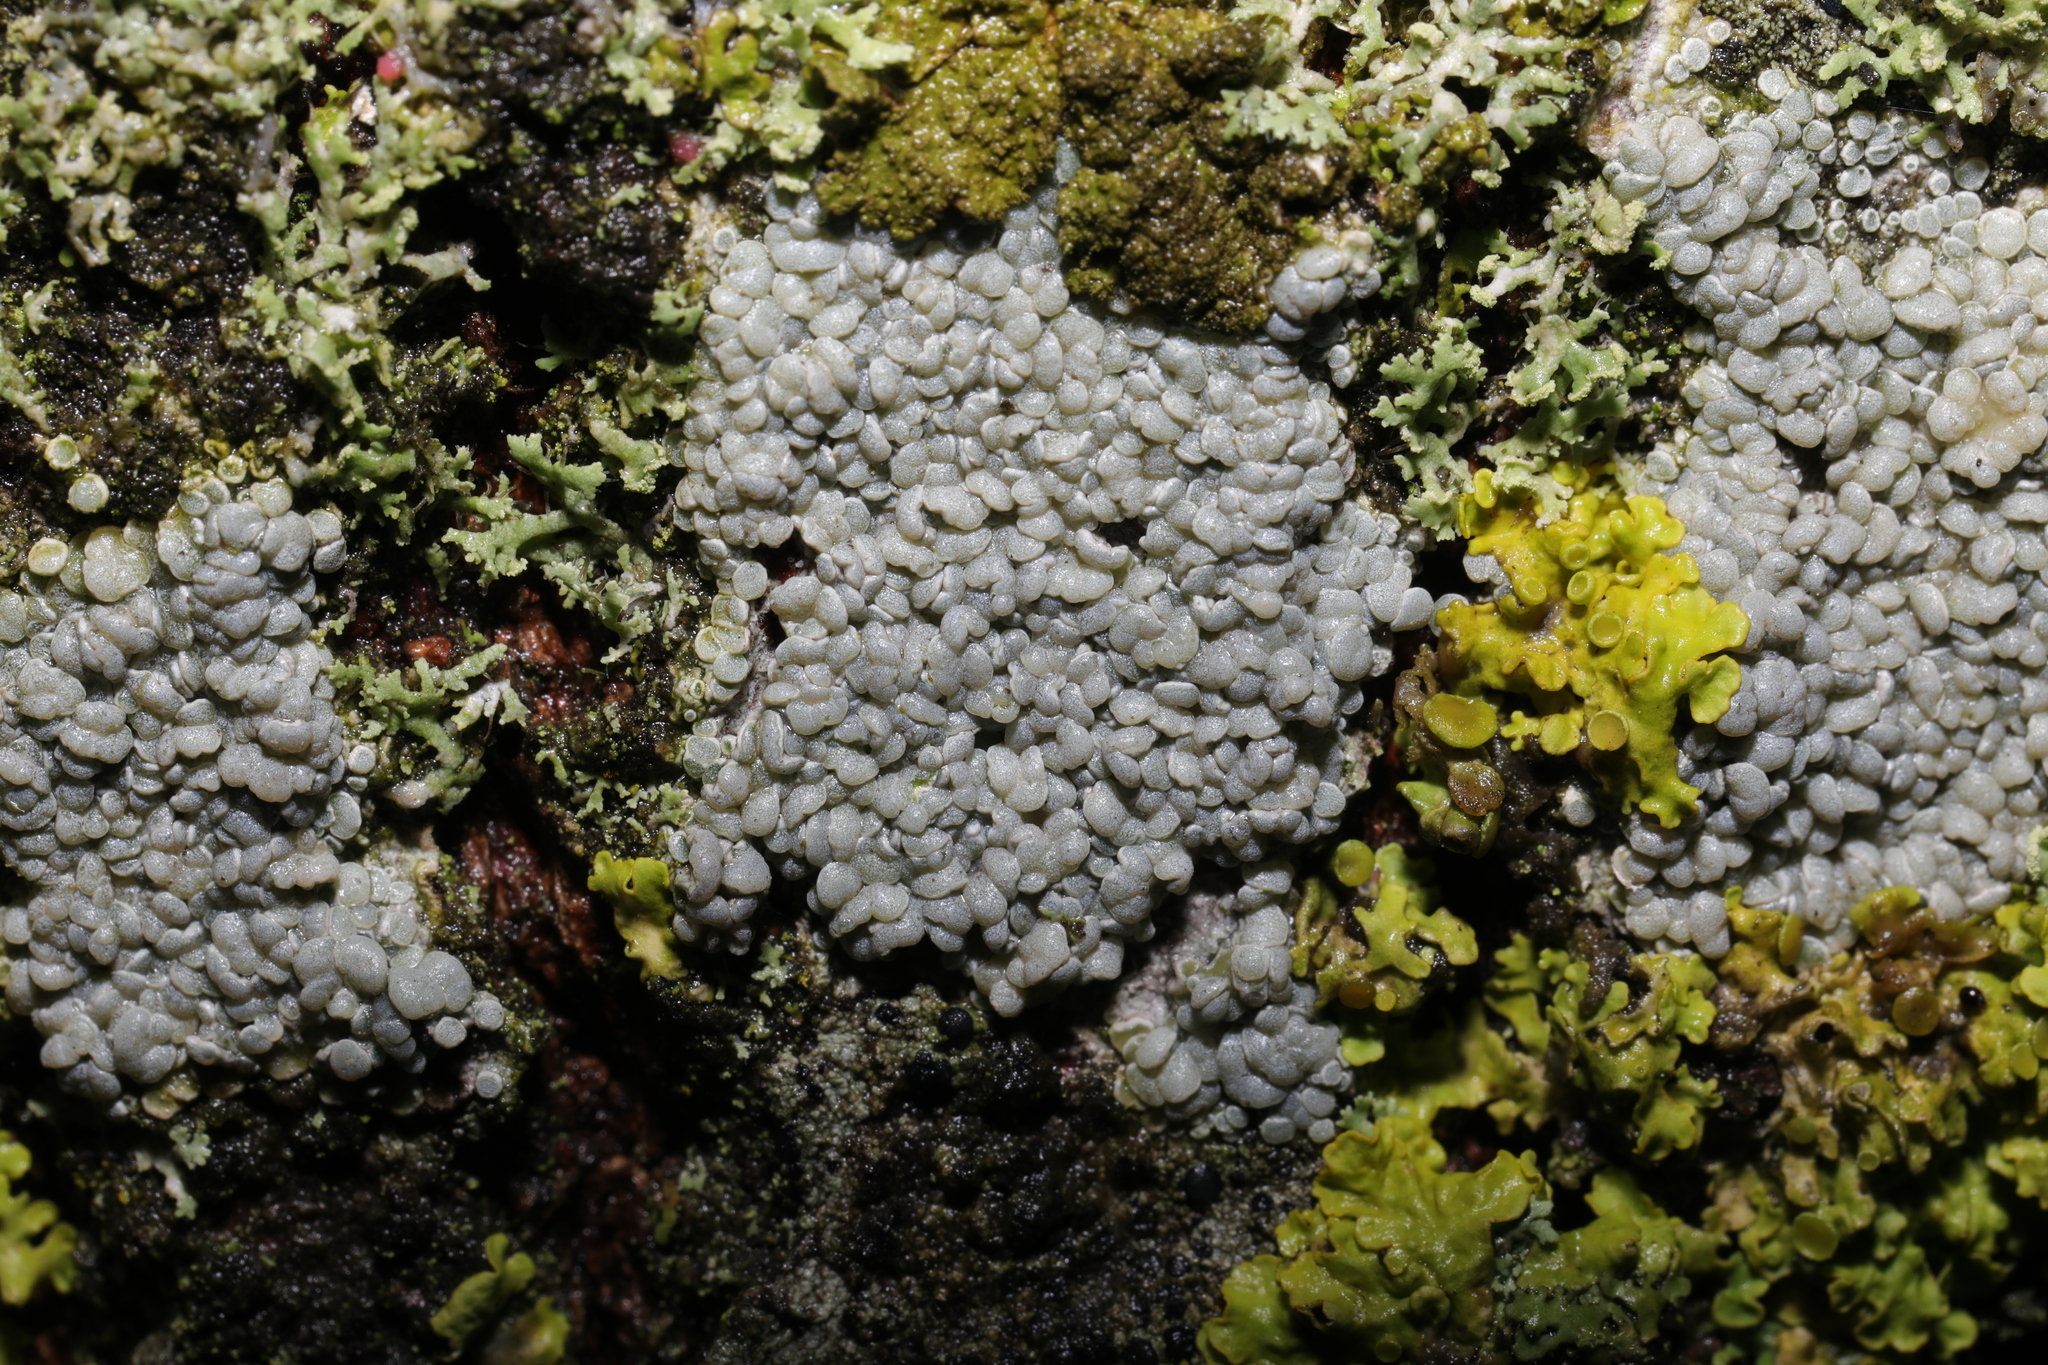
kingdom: Fungi
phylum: Ascomycota
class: Lecanoromycetes
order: Lecanorales
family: Lecanoraceae
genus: Glaucomaria
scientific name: Glaucomaria carpinea
